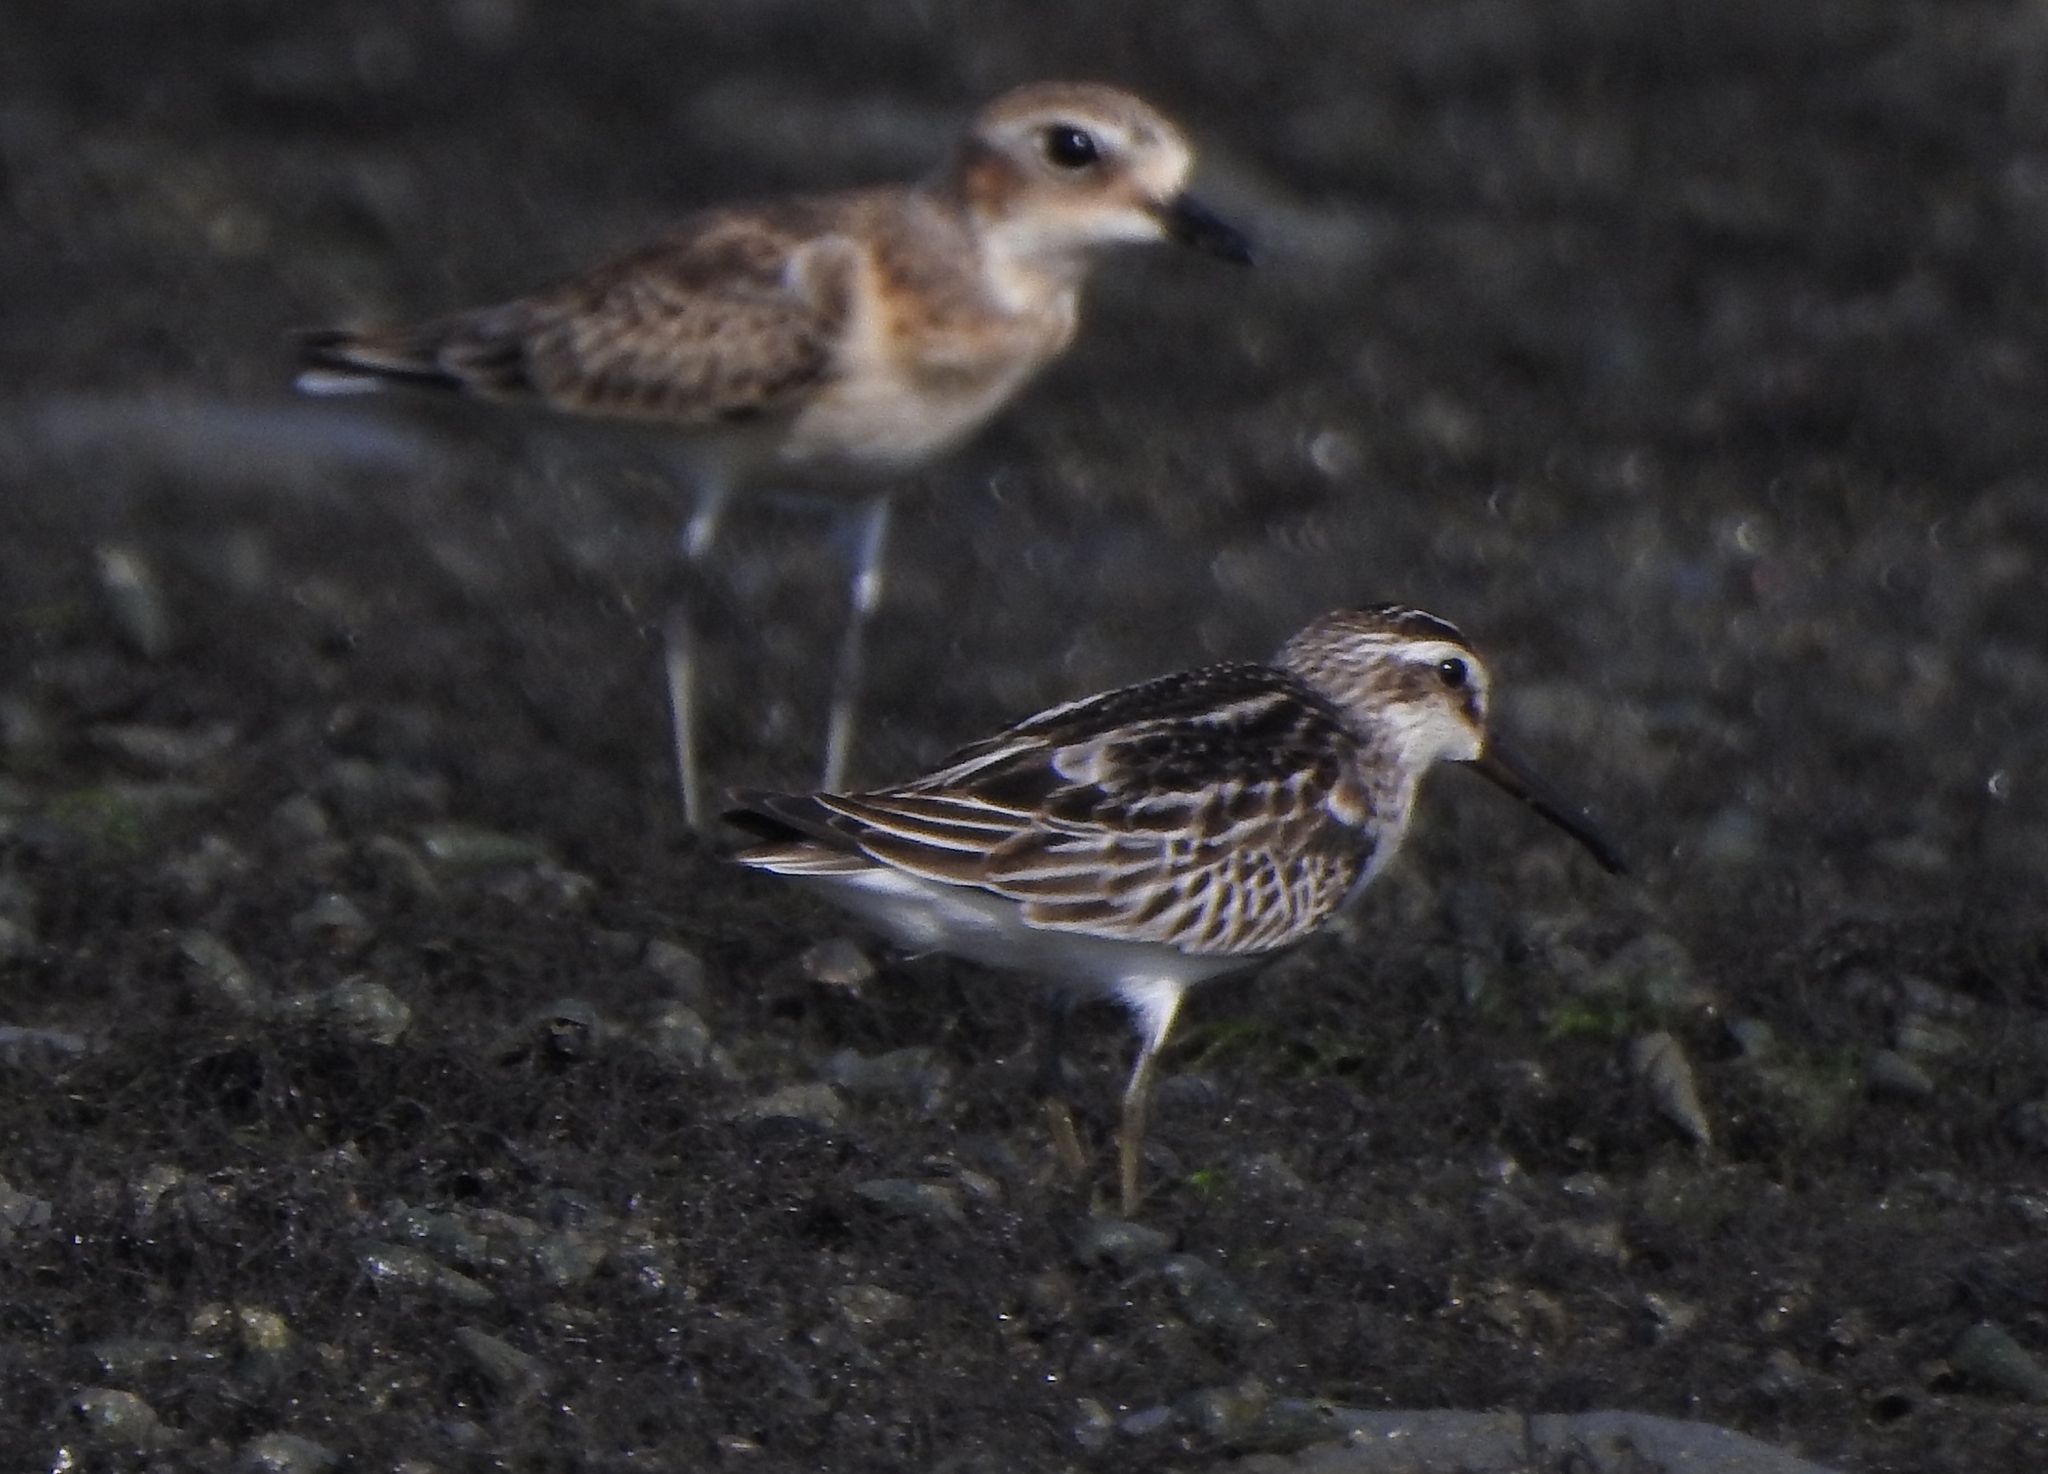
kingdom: Animalia
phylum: Chordata
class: Aves
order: Charadriiformes
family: Charadriidae
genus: Anarhynchus
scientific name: Anarhynchus
